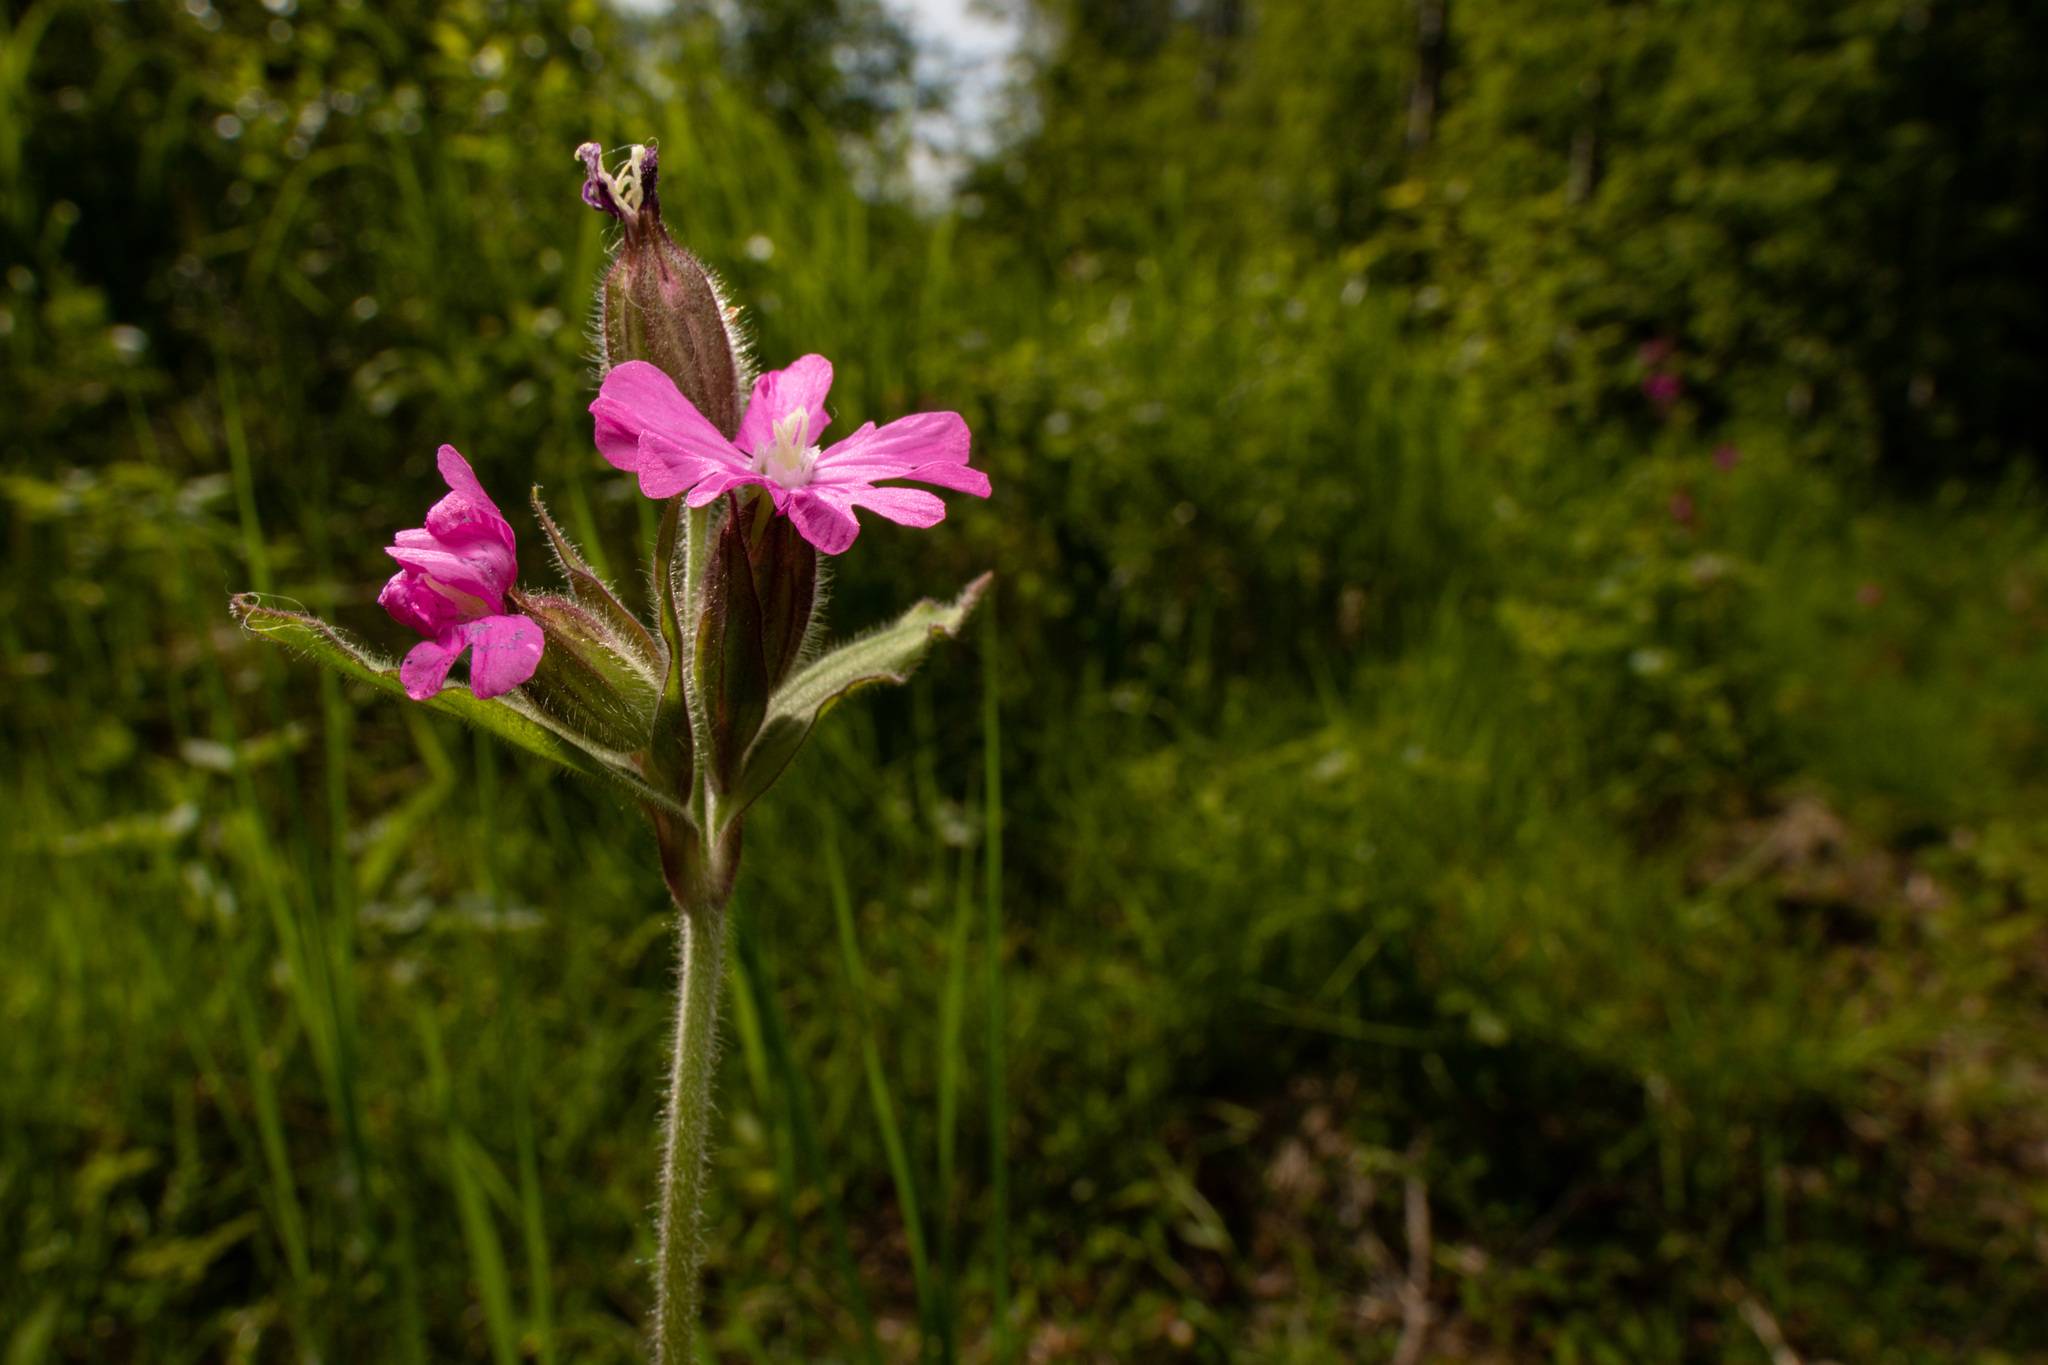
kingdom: Plantae
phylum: Tracheophyta
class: Magnoliopsida
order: Caryophyllales
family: Caryophyllaceae
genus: Silene
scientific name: Silene dioica
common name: Red campion
